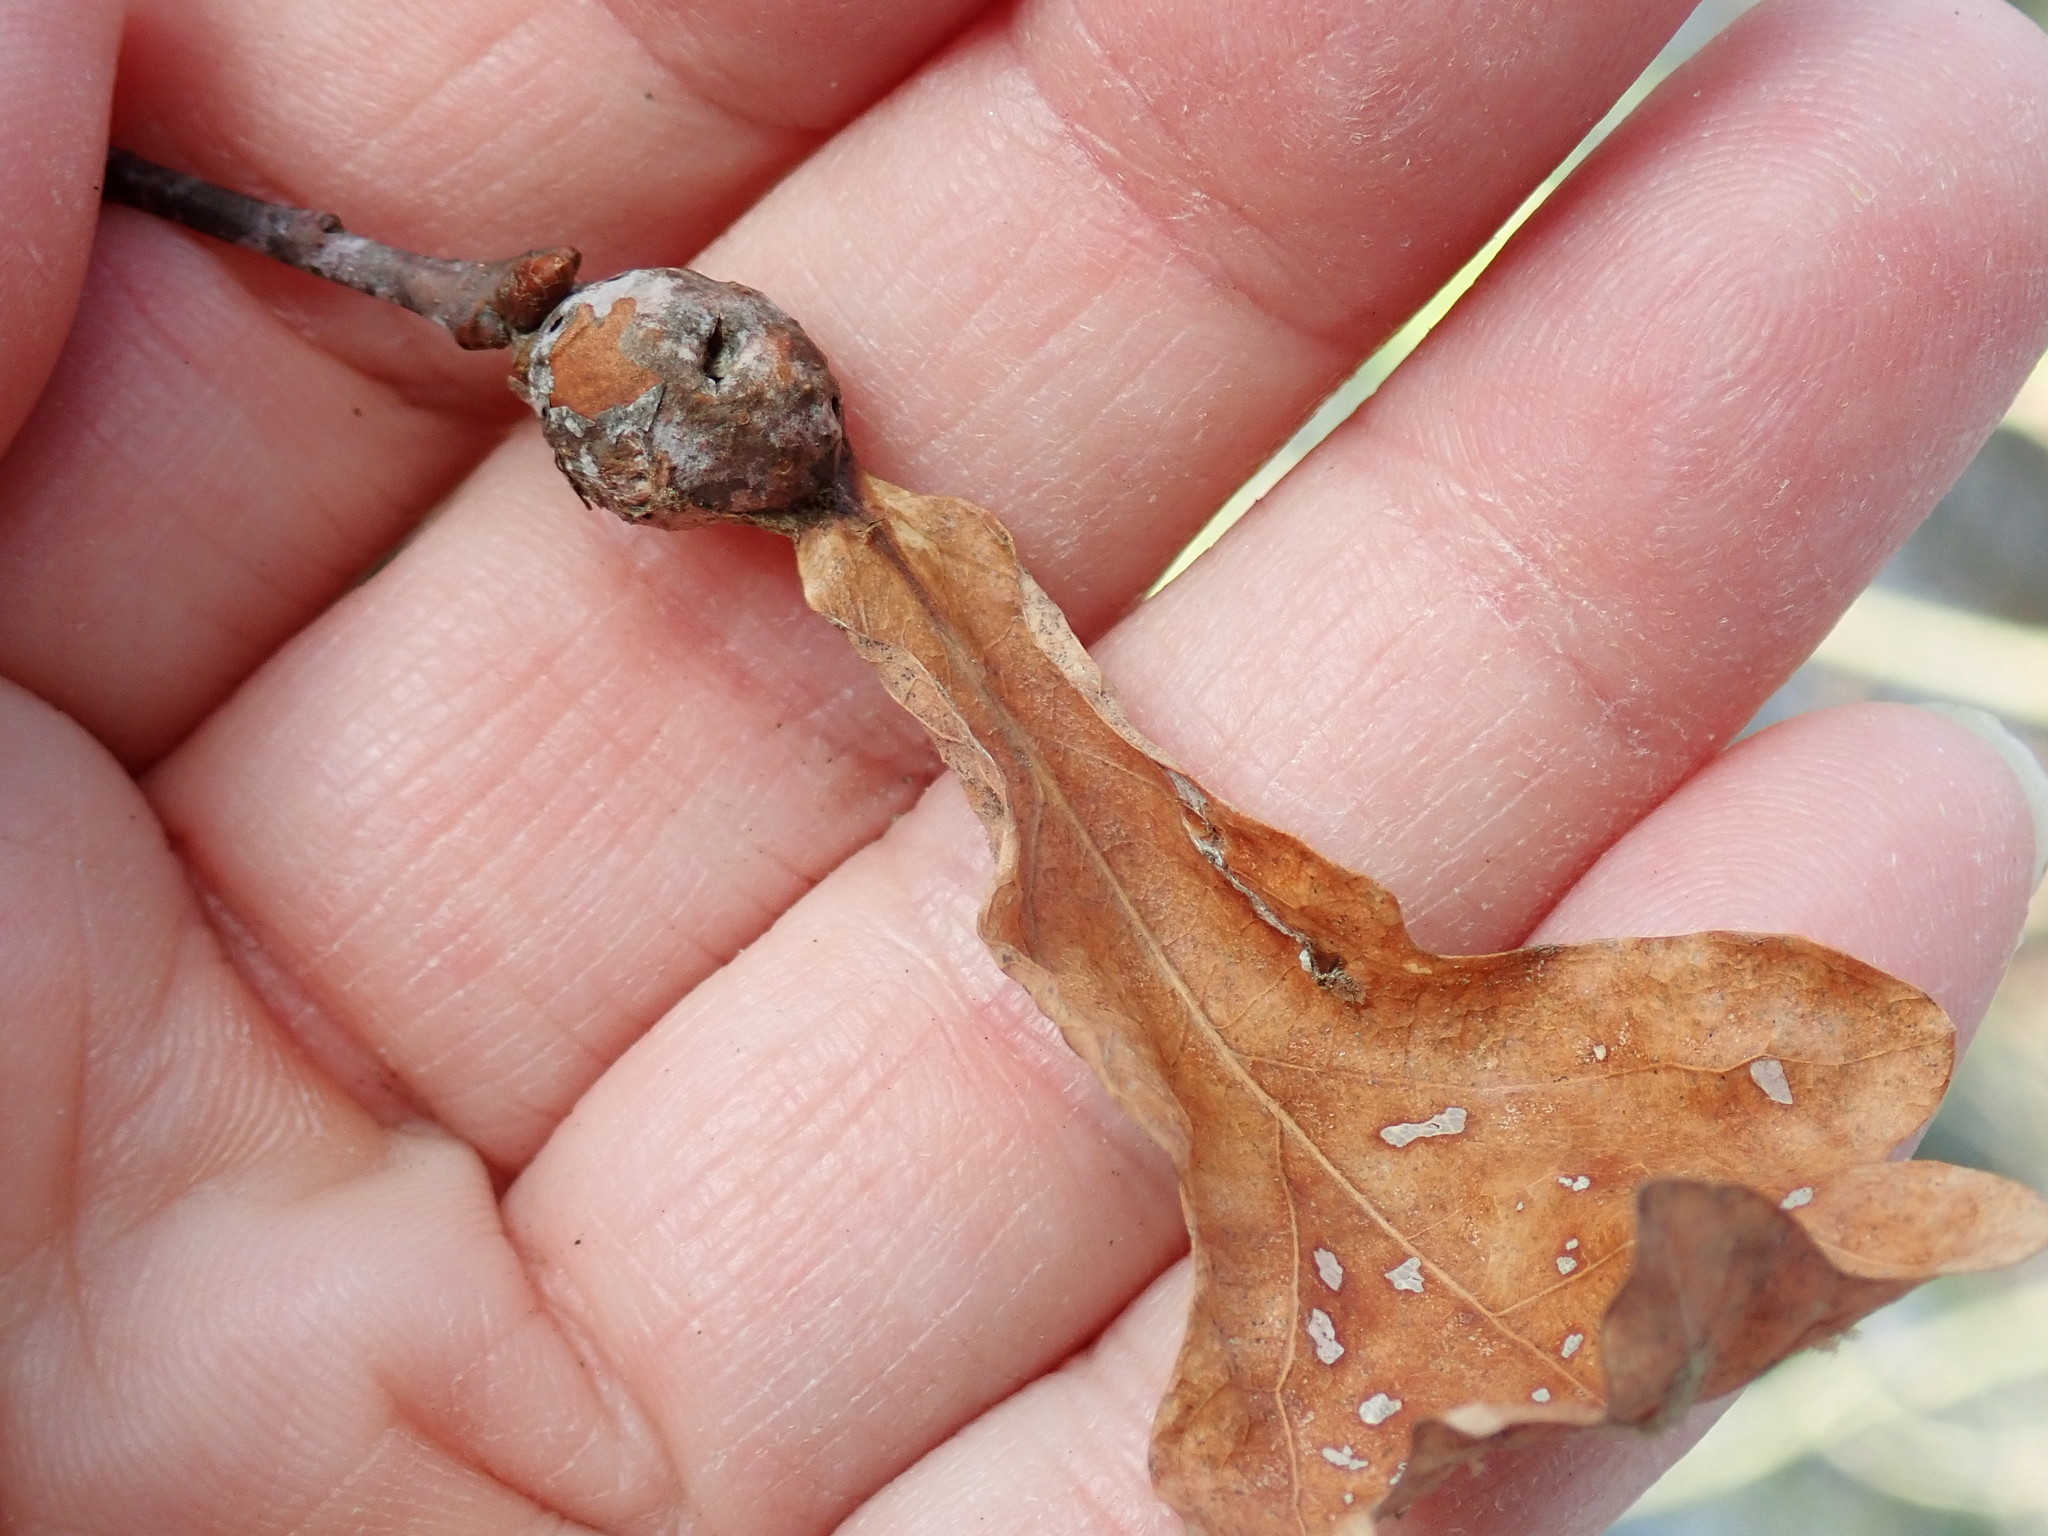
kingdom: Animalia
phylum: Arthropoda
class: Insecta
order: Hymenoptera
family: Cynipidae
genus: Andricus
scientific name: Andricus
